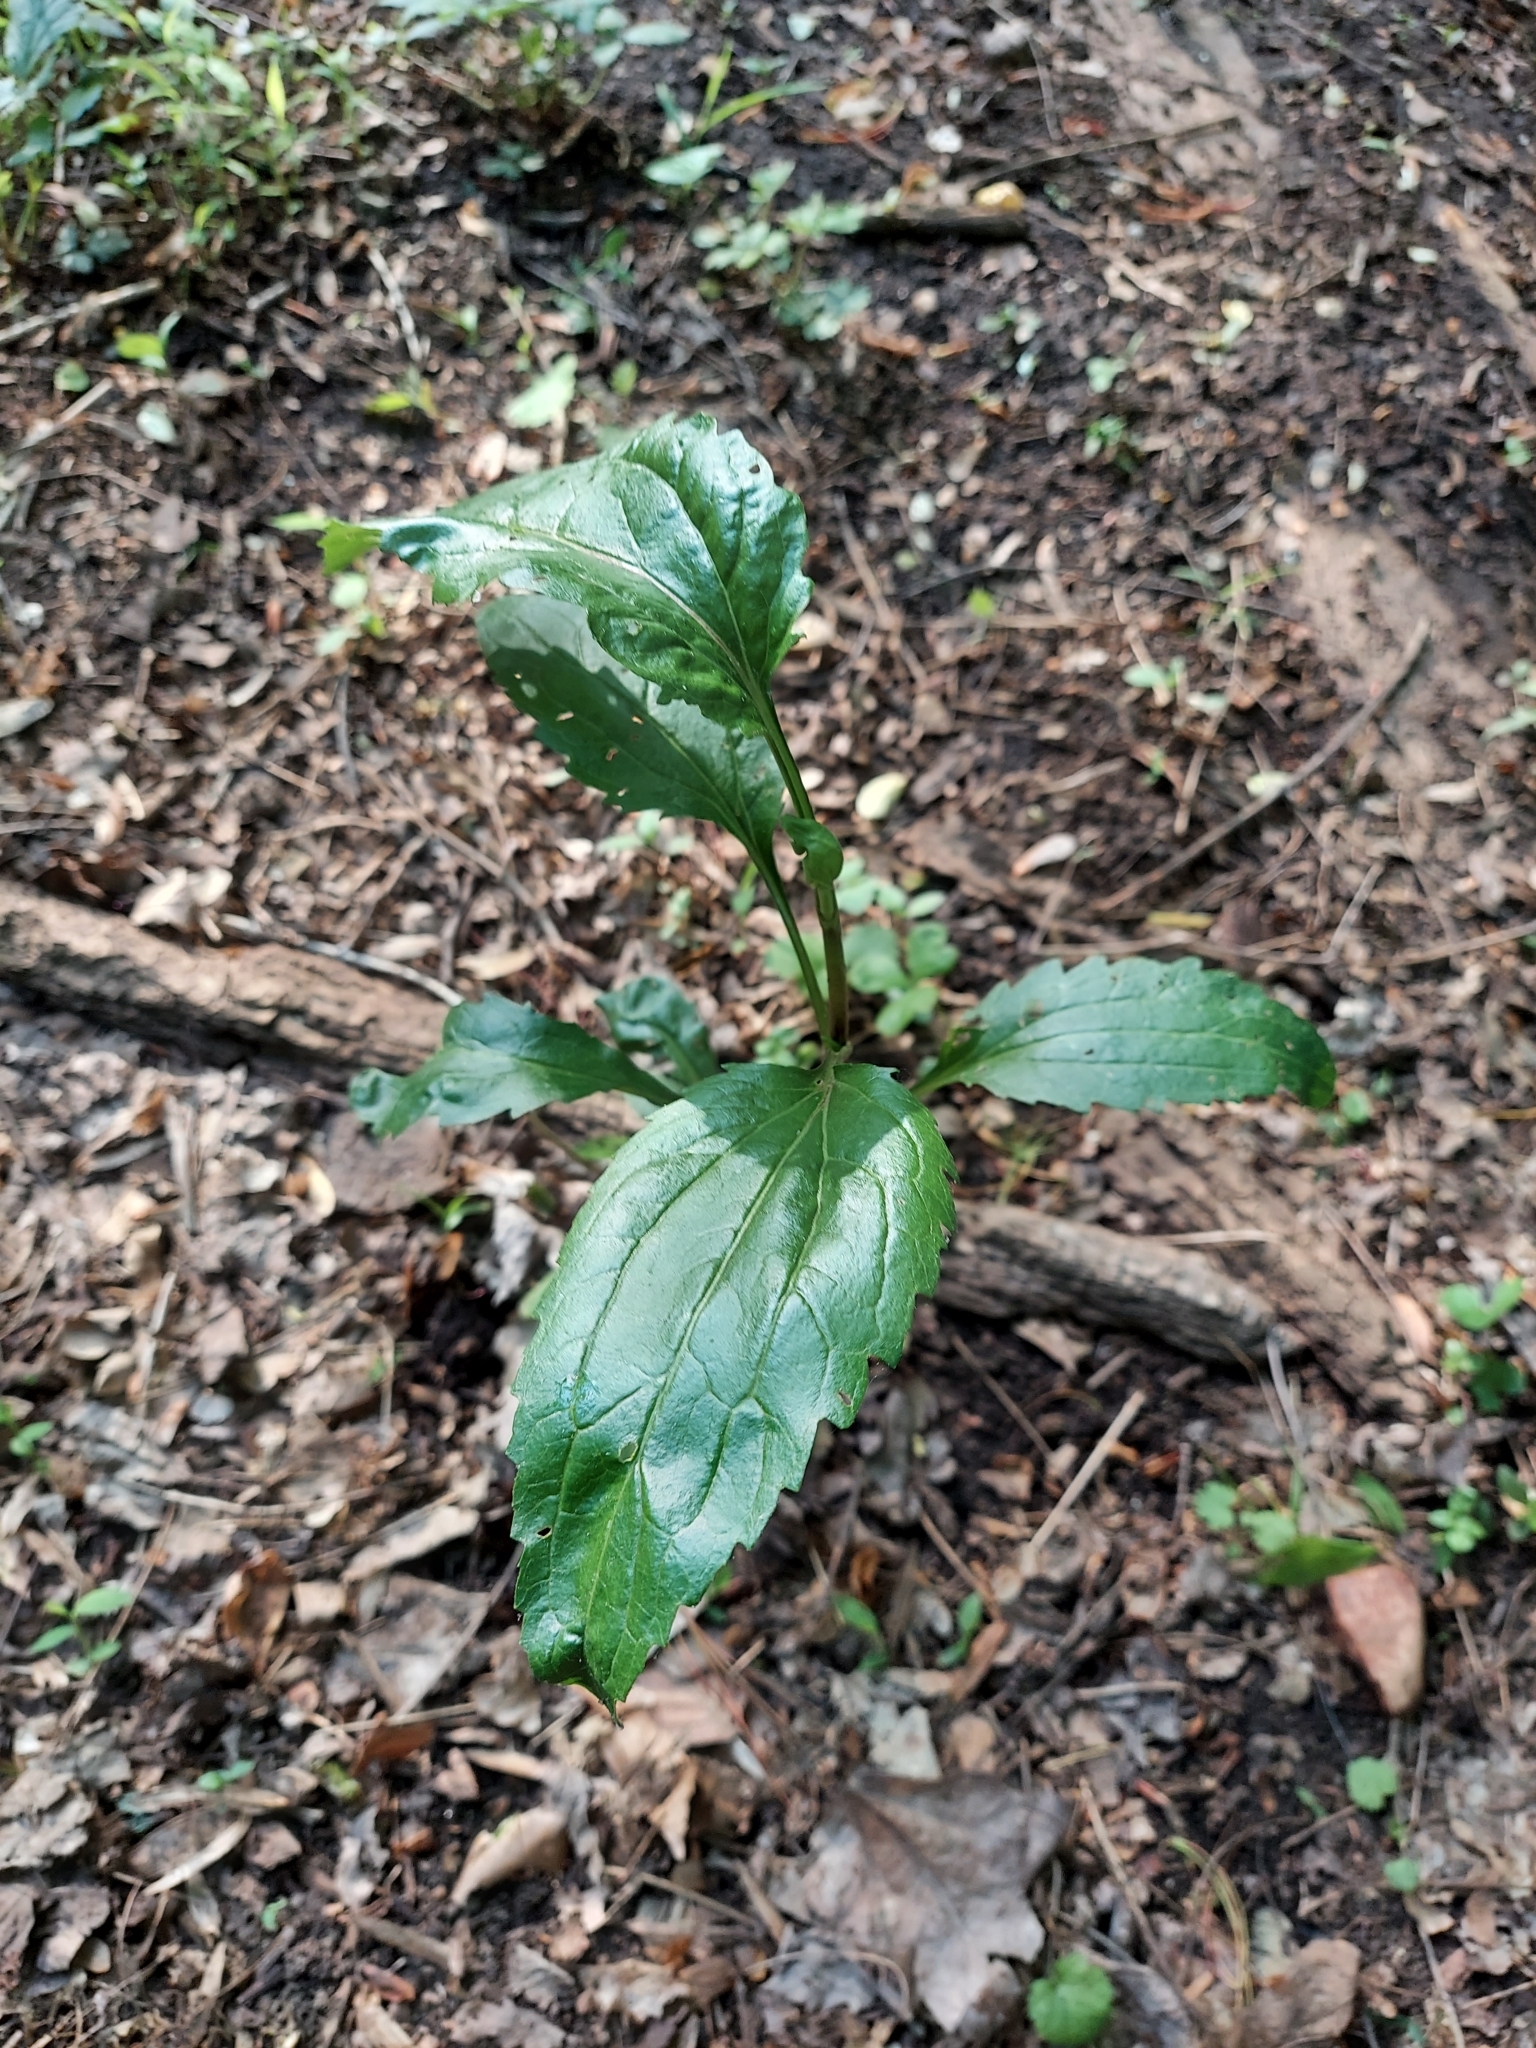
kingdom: Plantae
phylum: Tracheophyta
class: Magnoliopsida
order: Asterales
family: Asteraceae
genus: Eupatorium
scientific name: Eupatorium serotinum
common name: Late boneset
